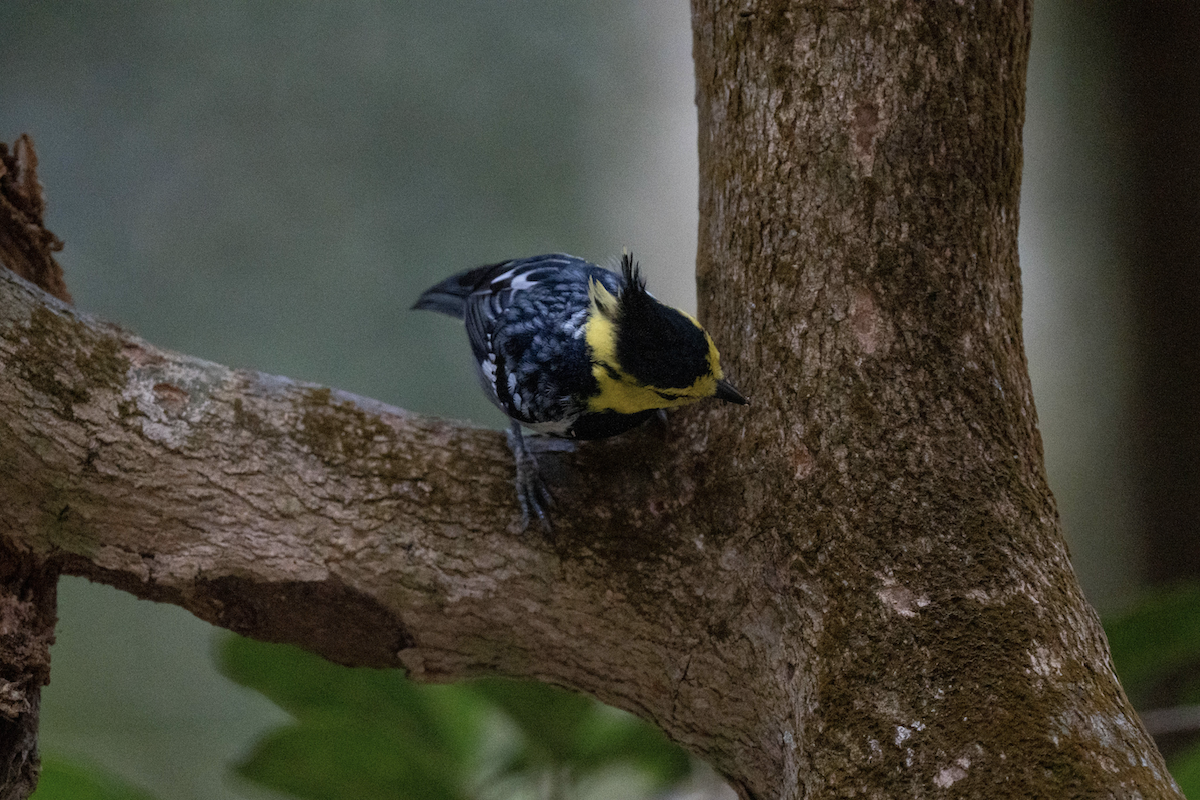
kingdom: Animalia
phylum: Chordata
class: Aves
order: Passeriformes
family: Paridae
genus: Parus
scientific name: Parus spilonotus
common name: Yellow-cheeked tit
